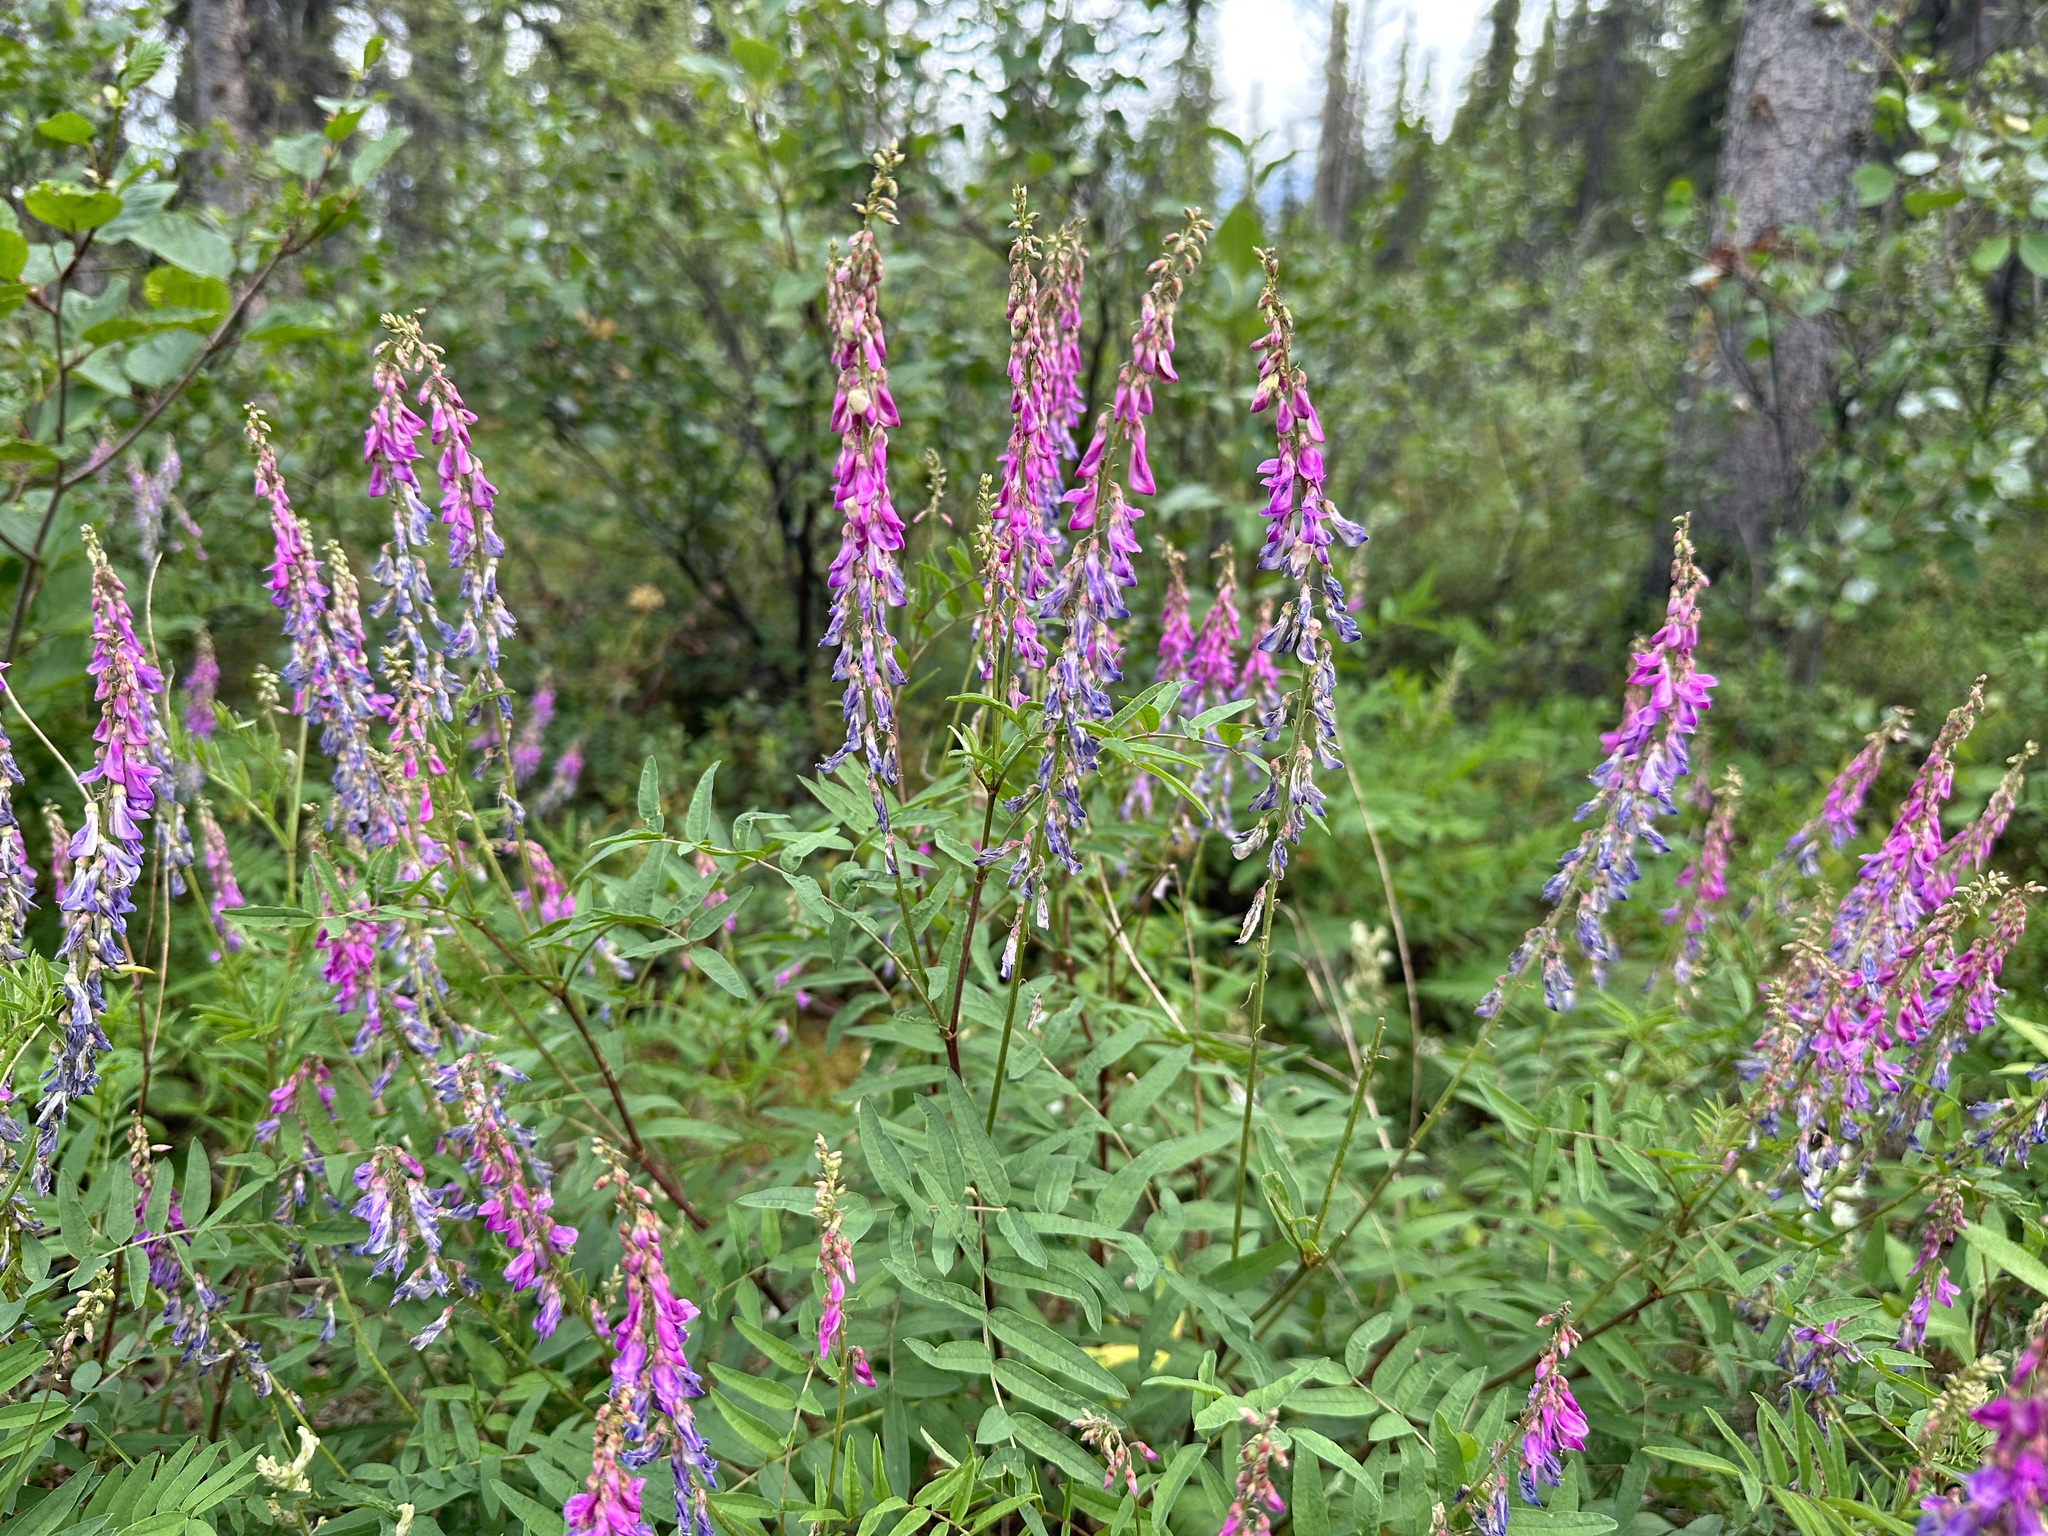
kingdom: Plantae
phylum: Tracheophyta
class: Magnoliopsida
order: Fabales
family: Fabaceae
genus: Hedysarum
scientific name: Hedysarum alpinum
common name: Alpine sweet-vetch
